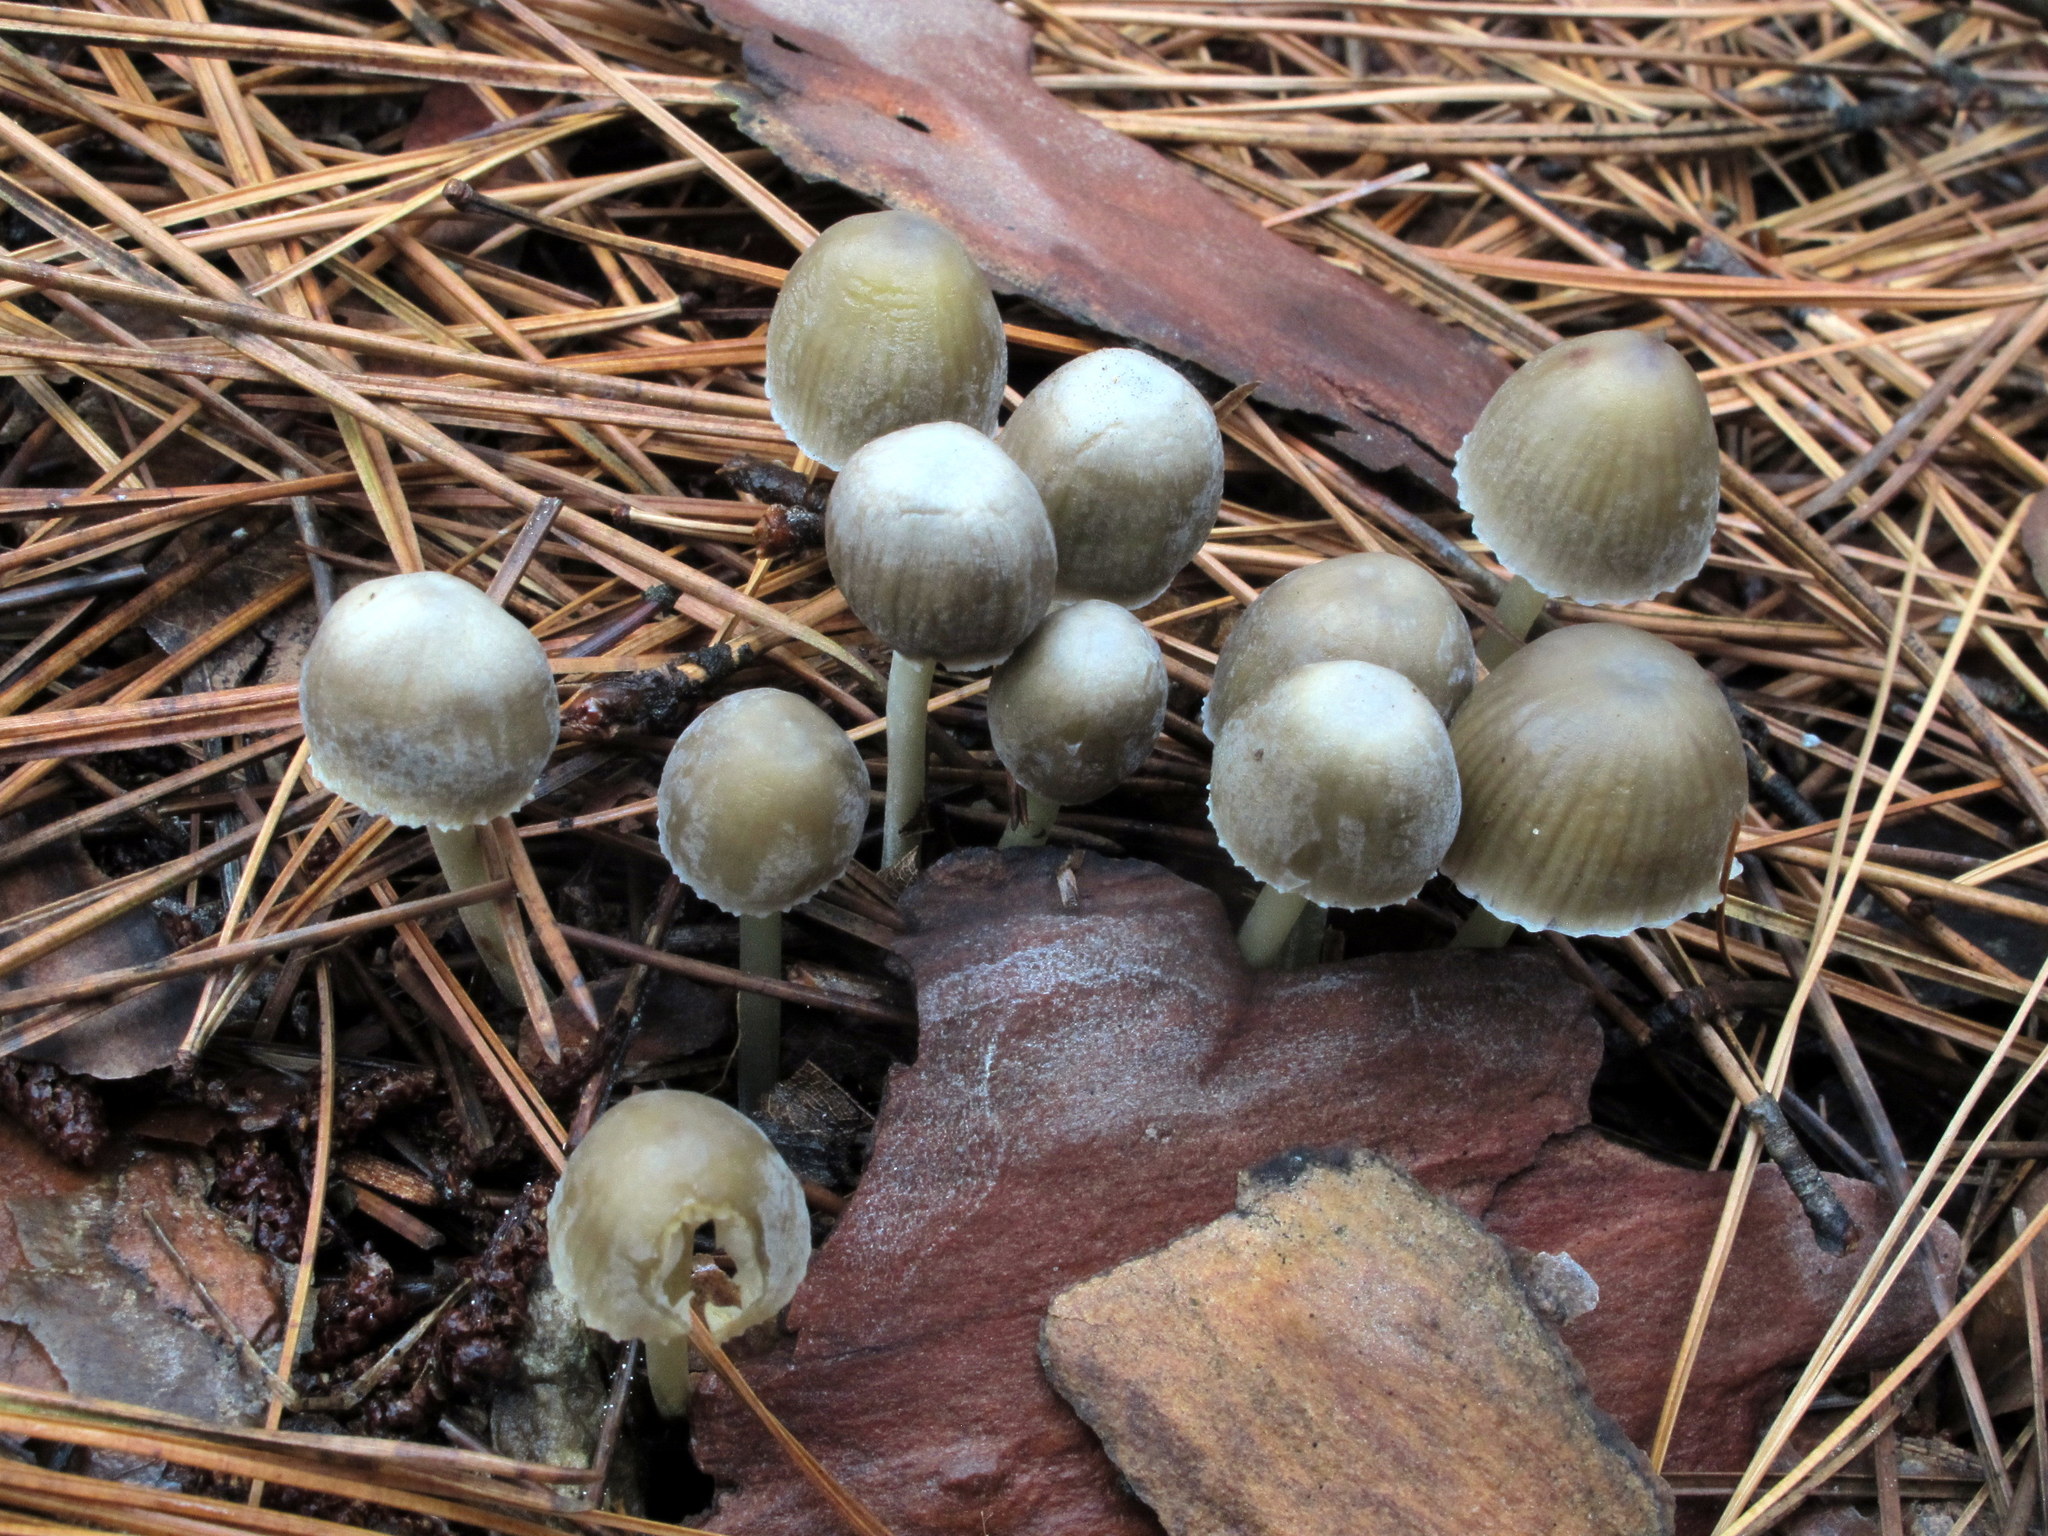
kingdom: Fungi
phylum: Basidiomycota
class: Agaricomycetes
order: Agaricales
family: Mycenaceae
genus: Mycena
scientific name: Mycena griseoviridis
